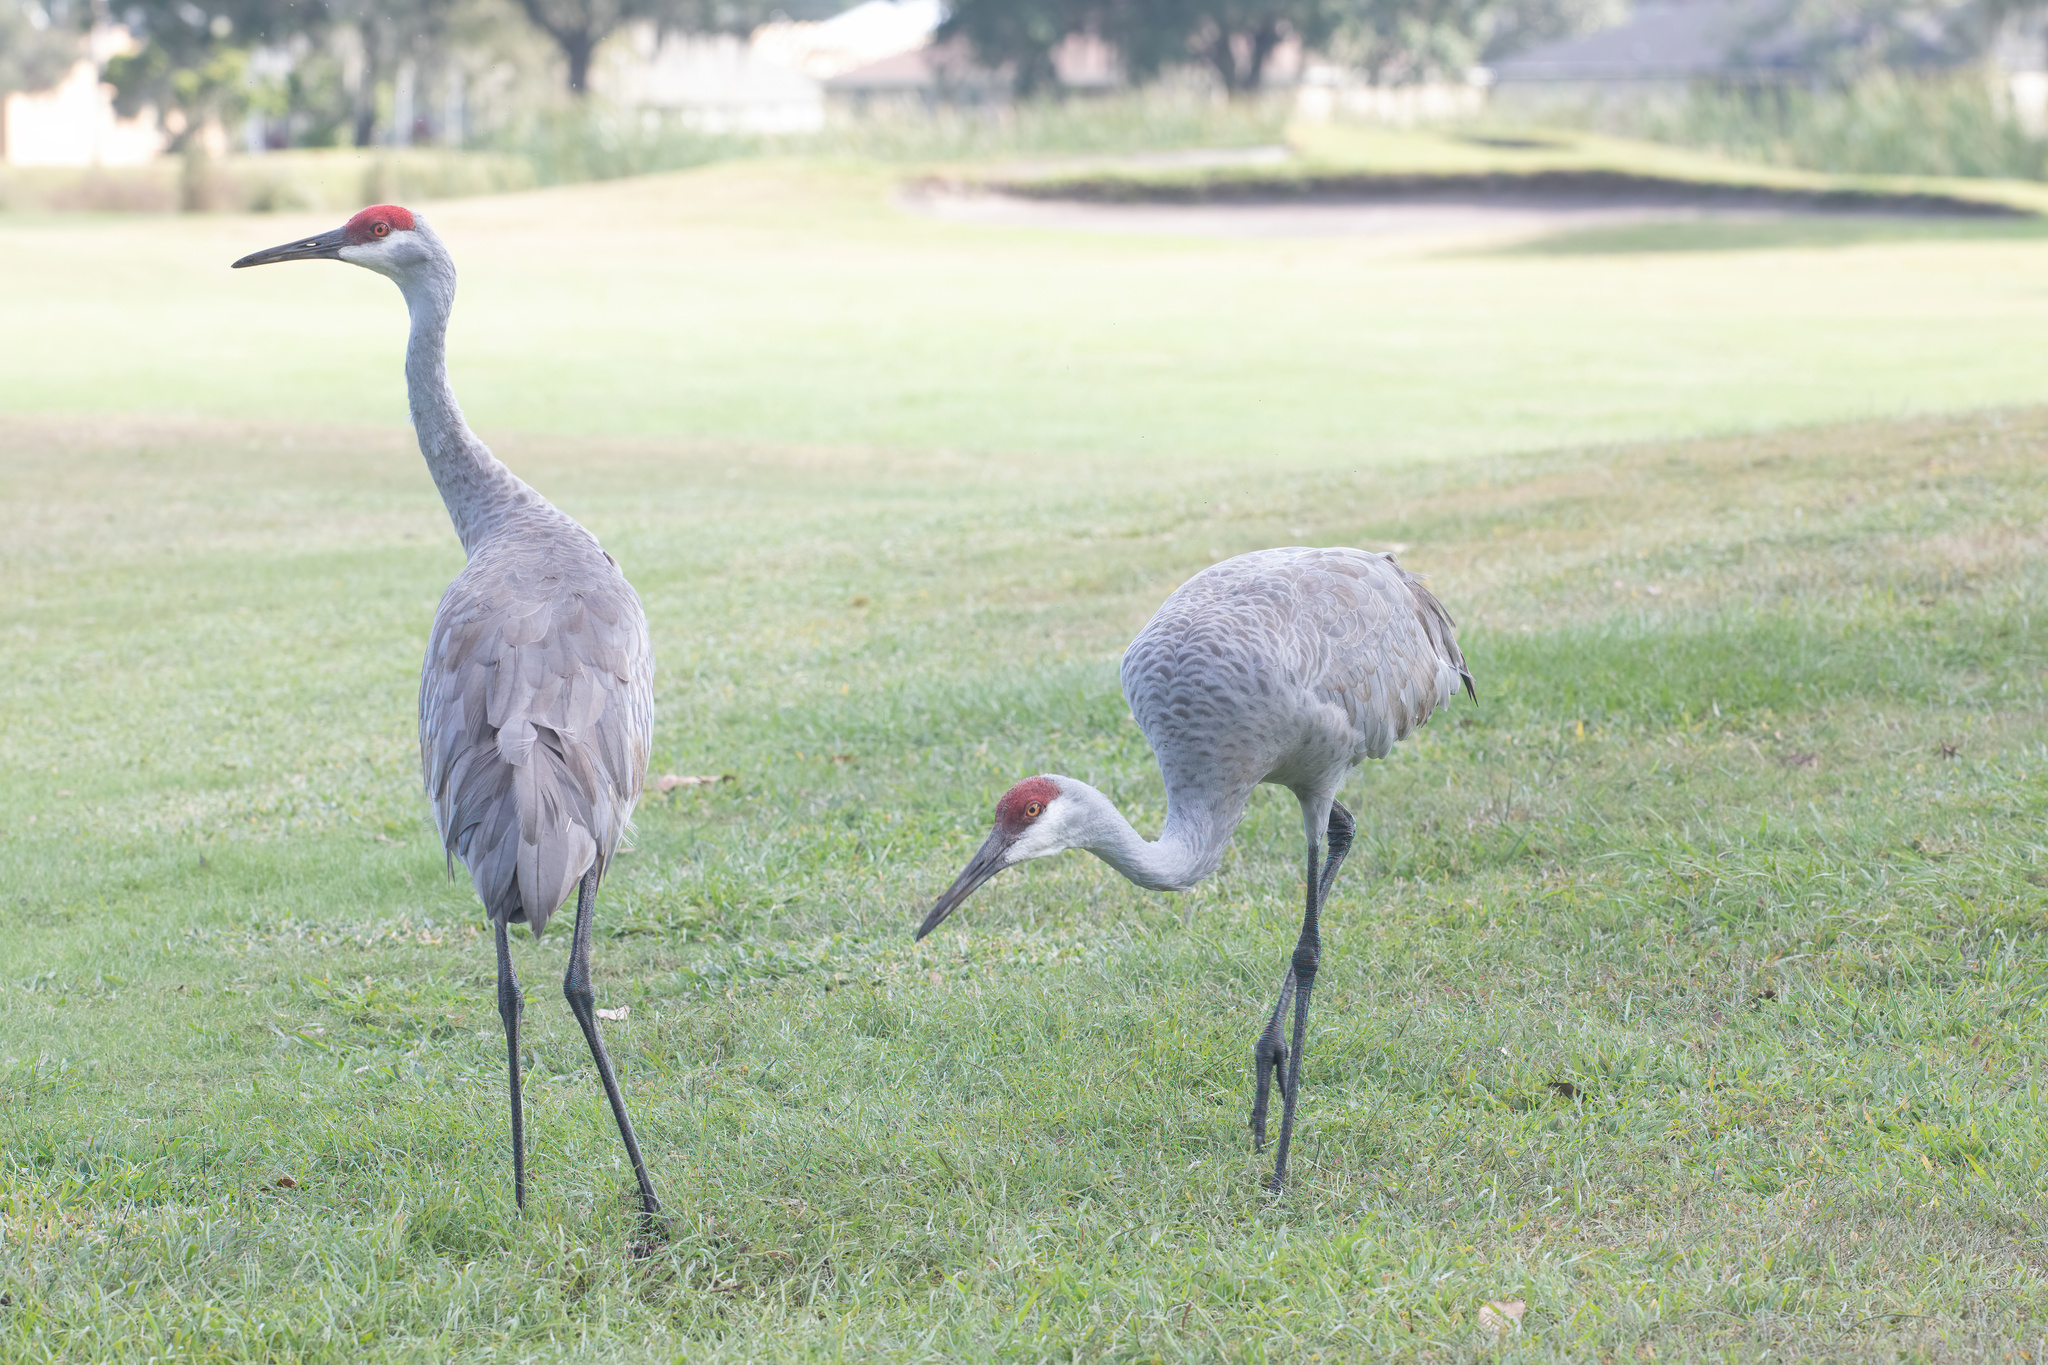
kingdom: Animalia
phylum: Chordata
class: Aves
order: Gruiformes
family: Gruidae
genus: Grus
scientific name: Grus canadensis
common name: Sandhill crane
